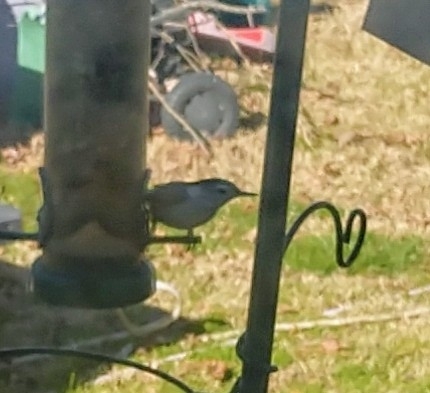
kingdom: Animalia
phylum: Chordata
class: Aves
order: Passeriformes
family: Sittidae
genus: Sitta
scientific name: Sitta carolinensis
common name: White-breasted nuthatch
